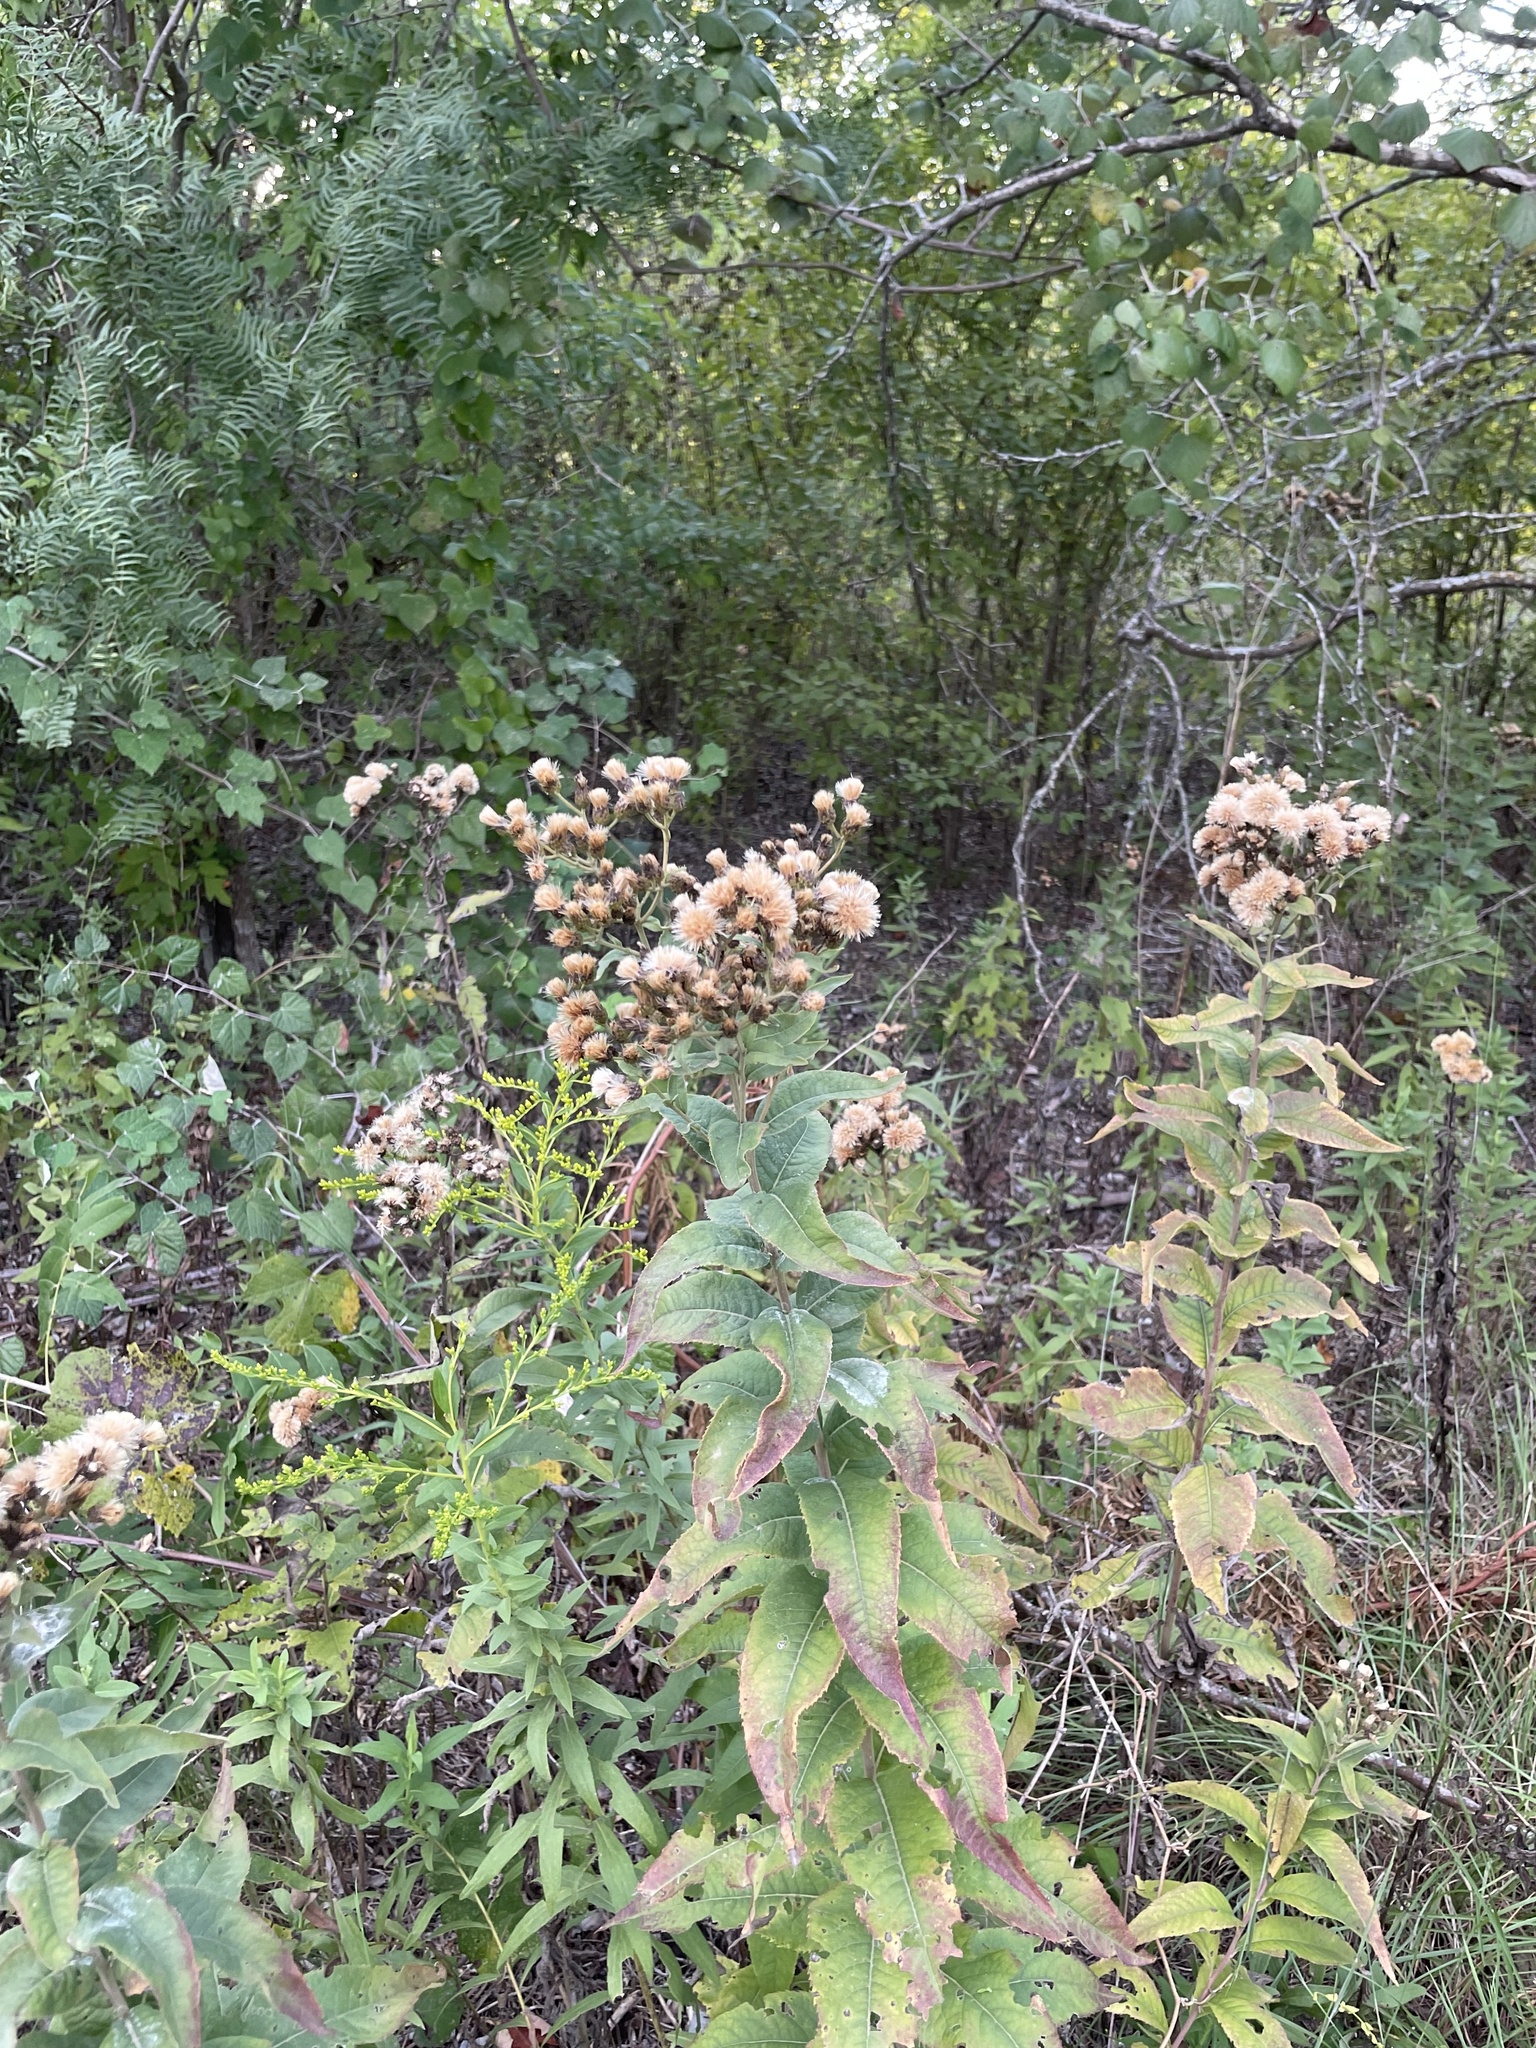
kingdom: Plantae
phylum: Tracheophyta
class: Magnoliopsida
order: Asterales
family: Asteraceae
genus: Vernonia
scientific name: Vernonia baldwinii
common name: Western ironweed
